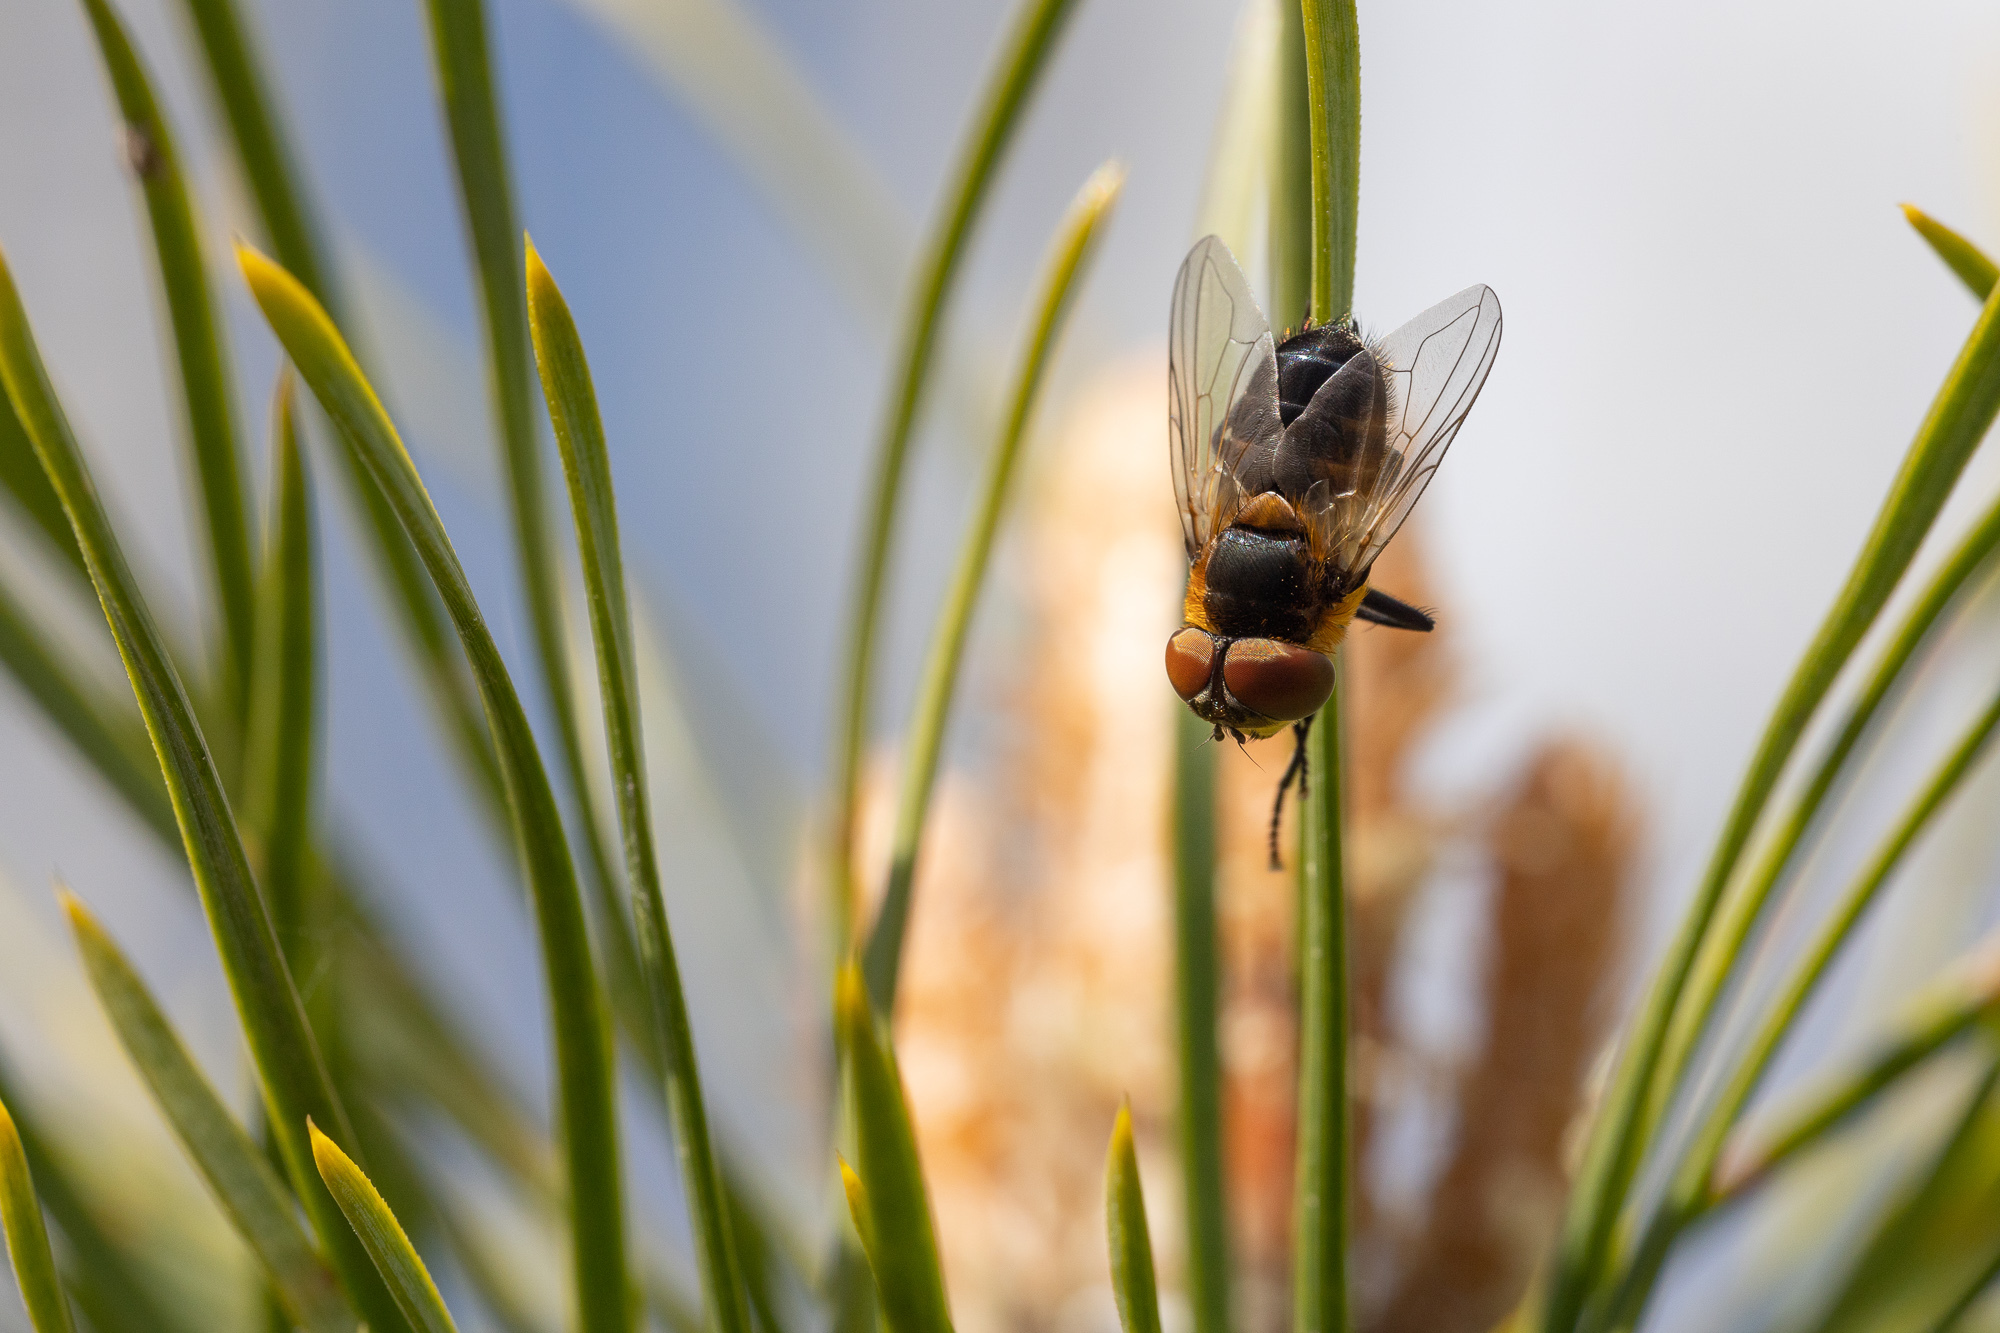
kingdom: Animalia
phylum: Arthropoda
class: Insecta
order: Diptera
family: Tachinidae
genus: Phasia
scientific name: Phasia hemiptera
